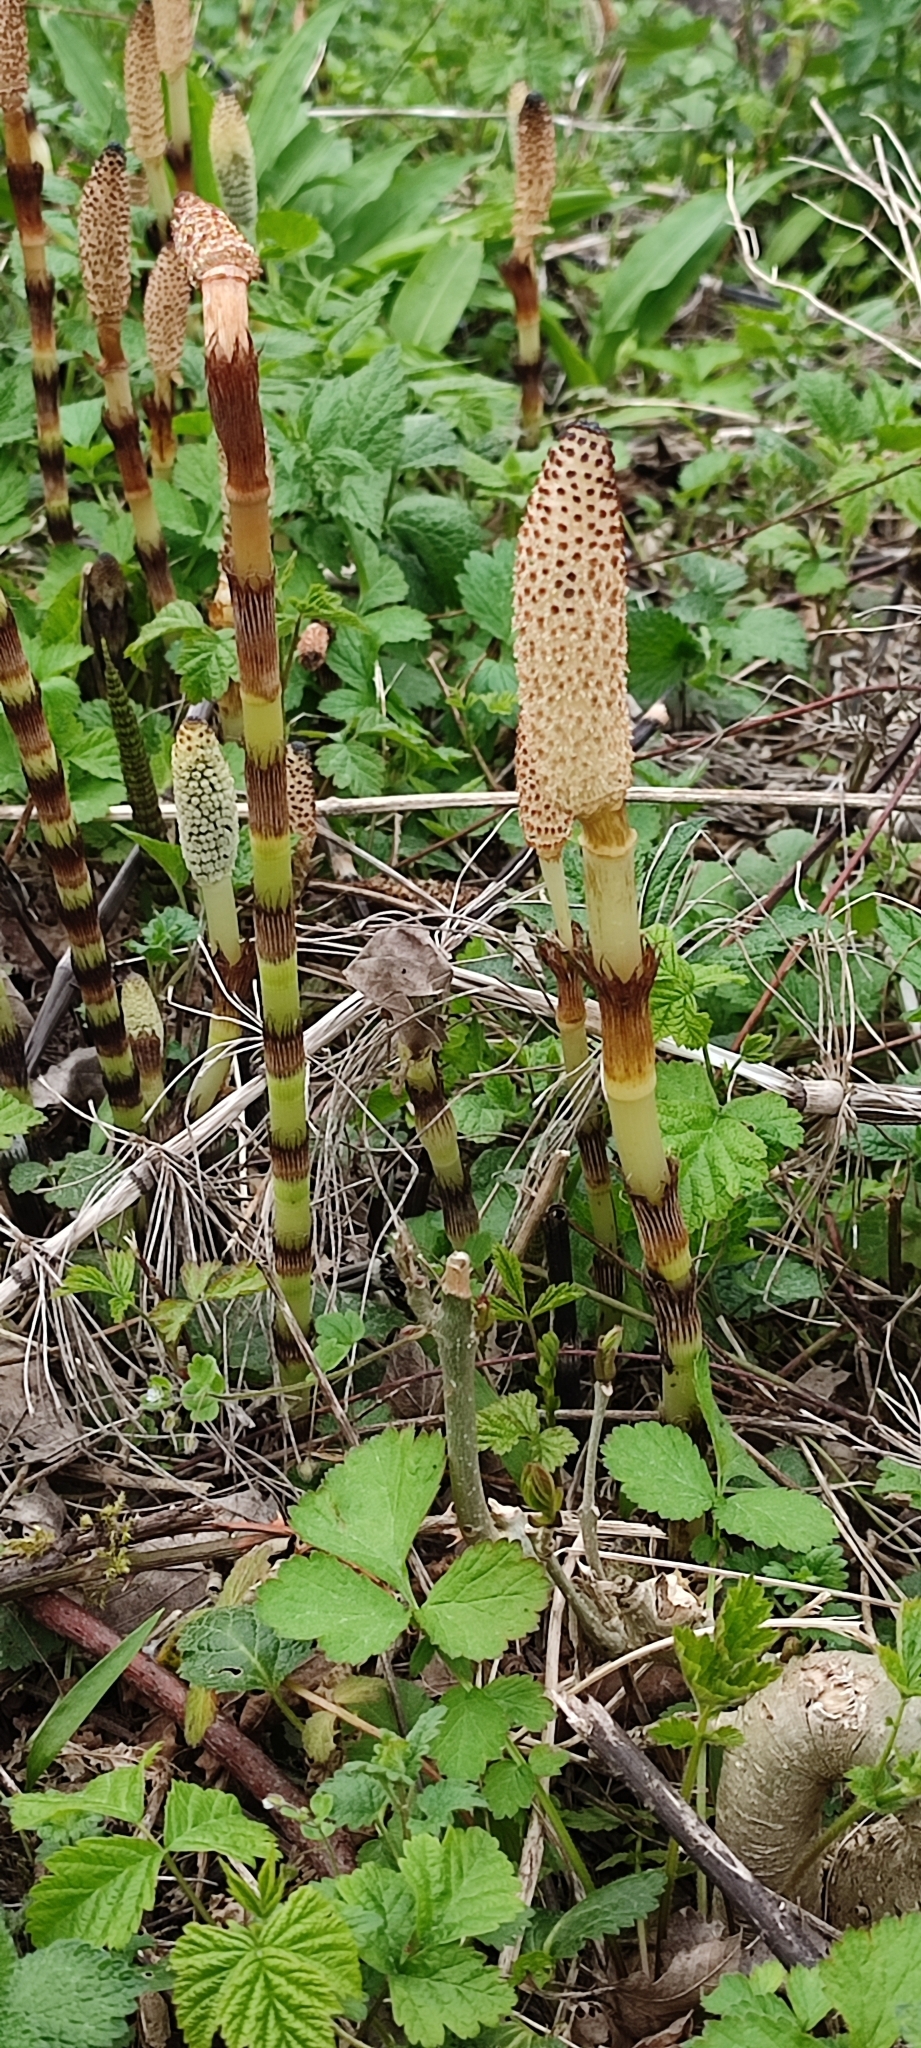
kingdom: Plantae
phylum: Tracheophyta
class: Polypodiopsida
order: Equisetales
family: Equisetaceae
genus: Equisetum
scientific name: Equisetum telmateia
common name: Great horsetail
